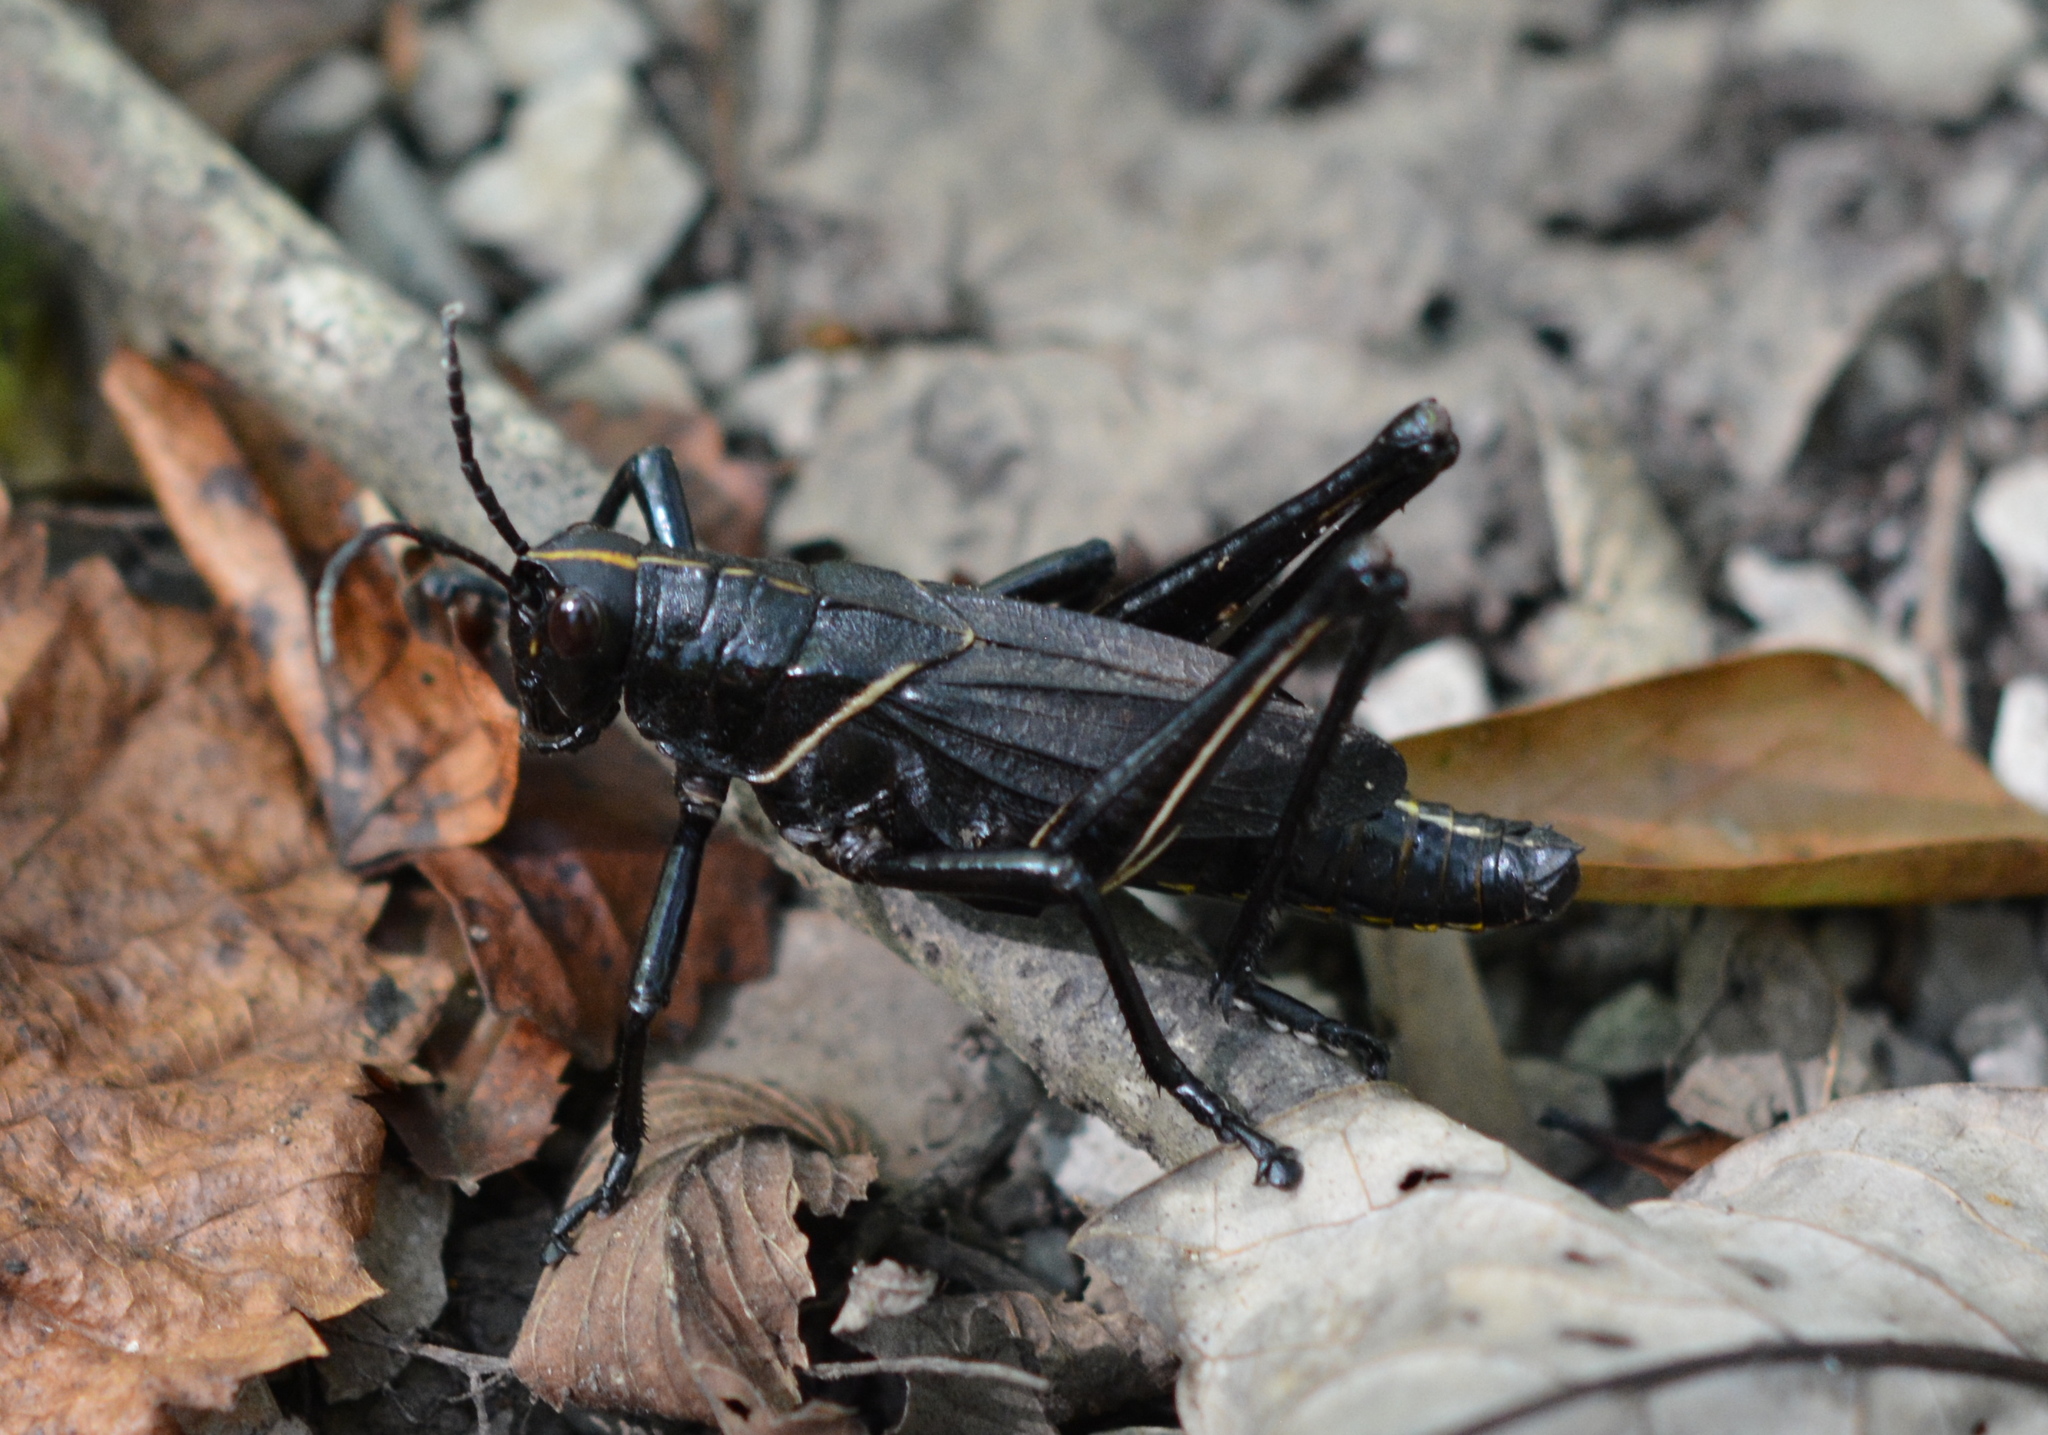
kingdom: Animalia
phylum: Arthropoda
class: Insecta
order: Orthoptera
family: Romaleidae
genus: Romalea
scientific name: Romalea microptera
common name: Eastern lubber grasshopper
